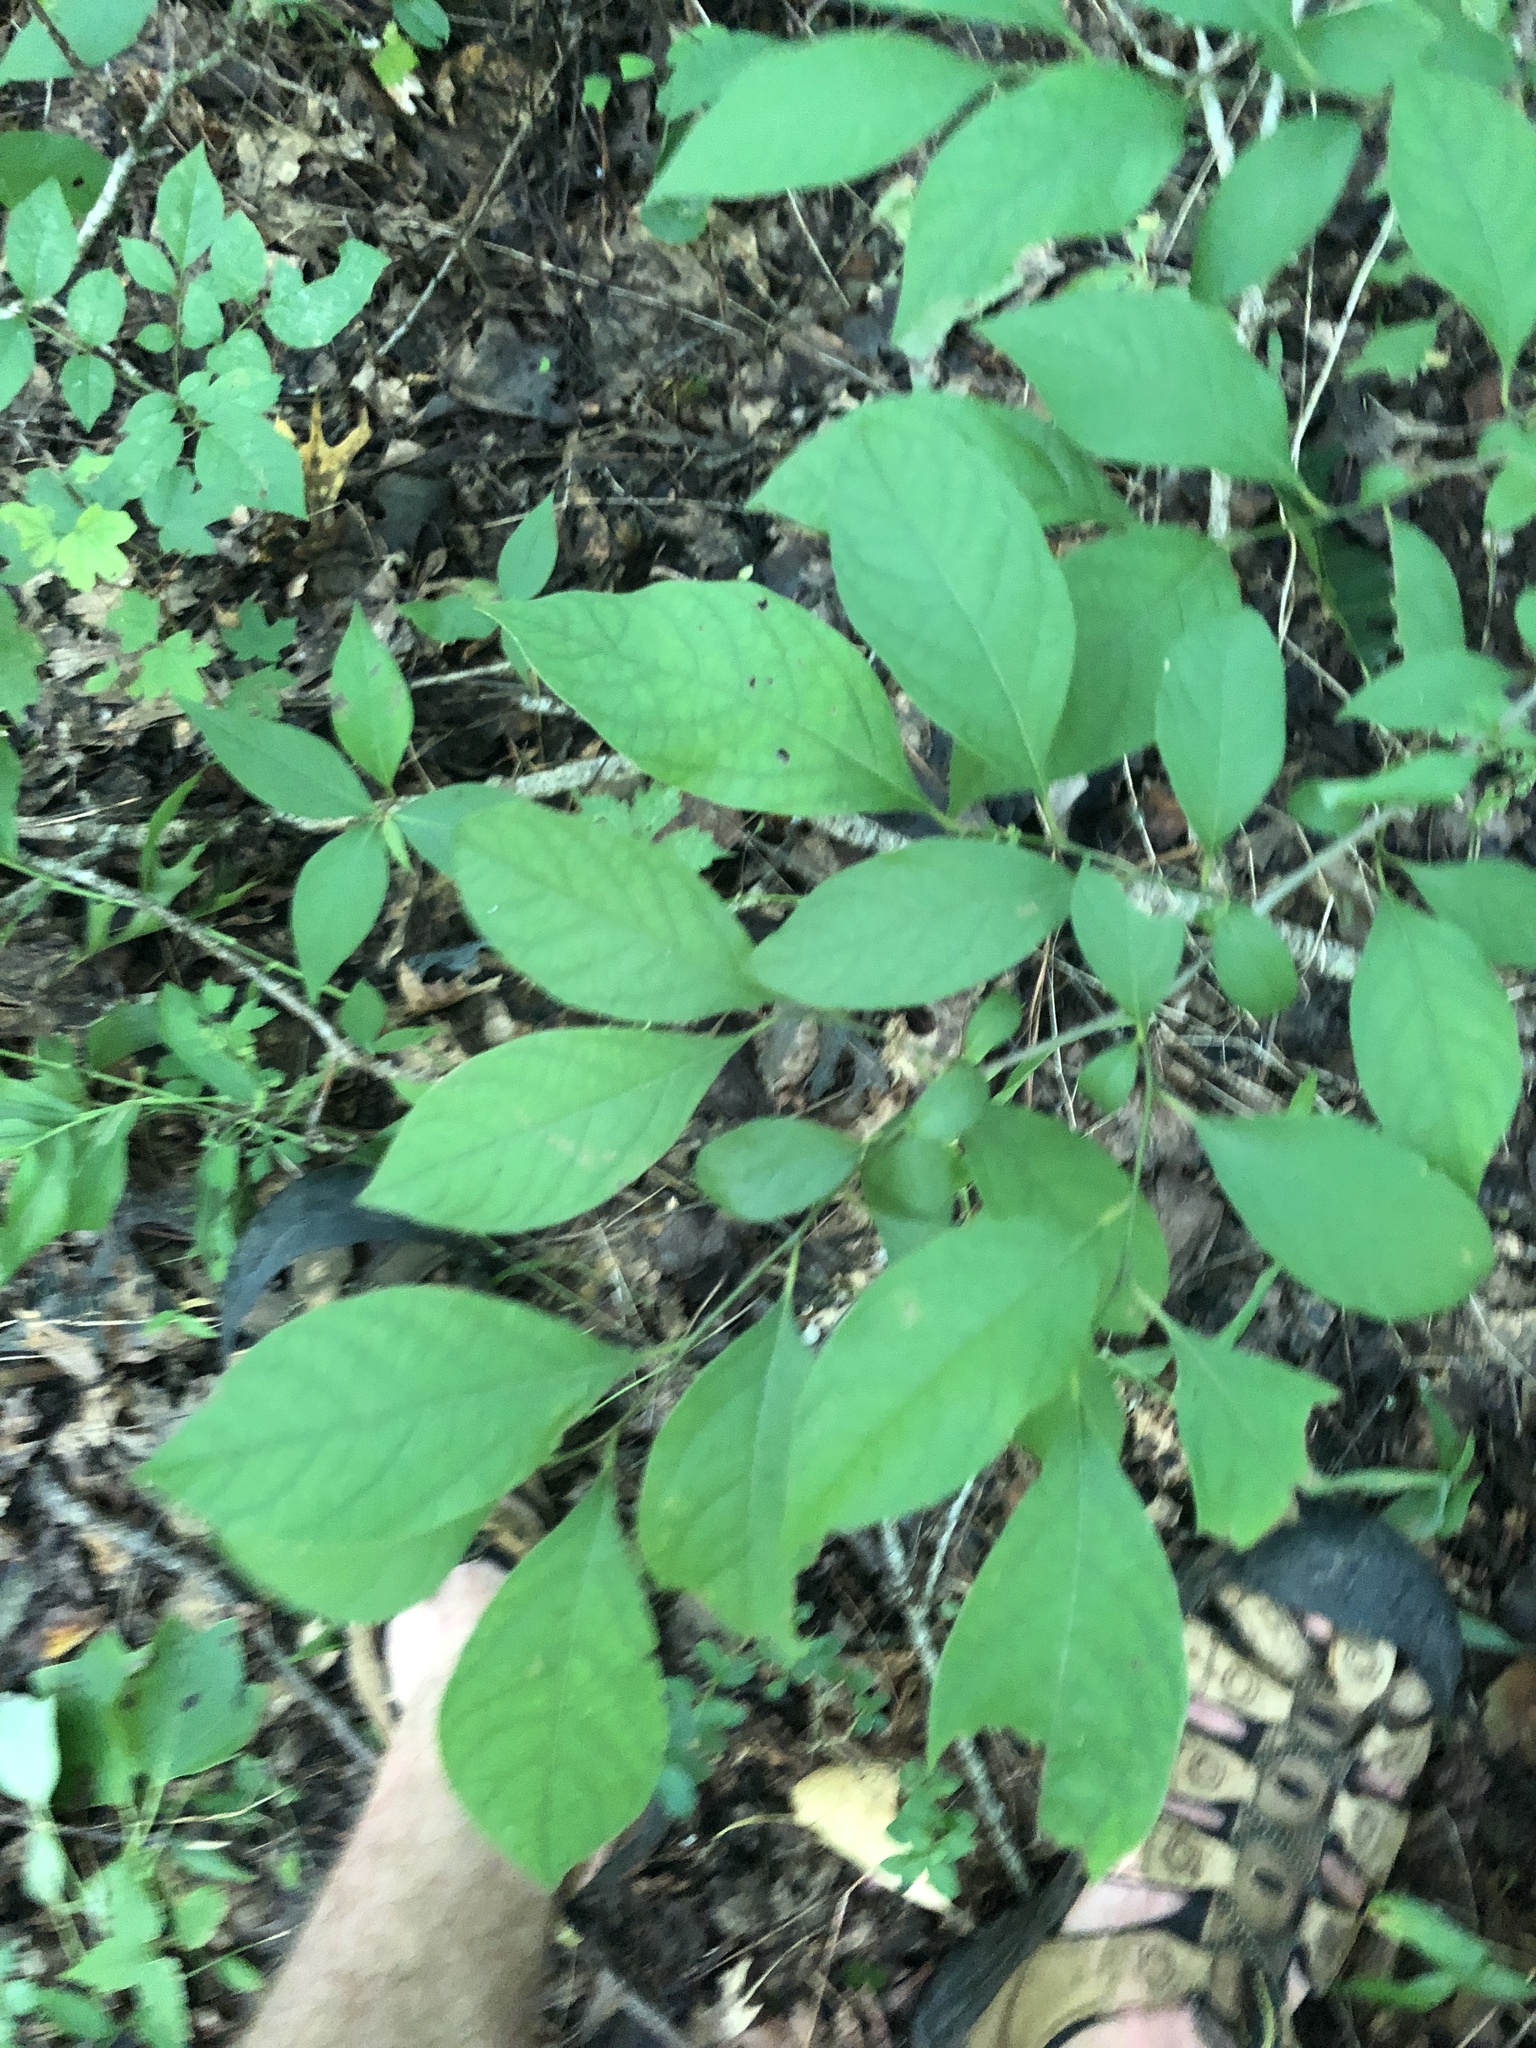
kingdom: Plantae
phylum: Tracheophyta
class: Magnoliopsida
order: Laurales
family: Lauraceae
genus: Lindera
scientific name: Lindera benzoin
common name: Spicebush
